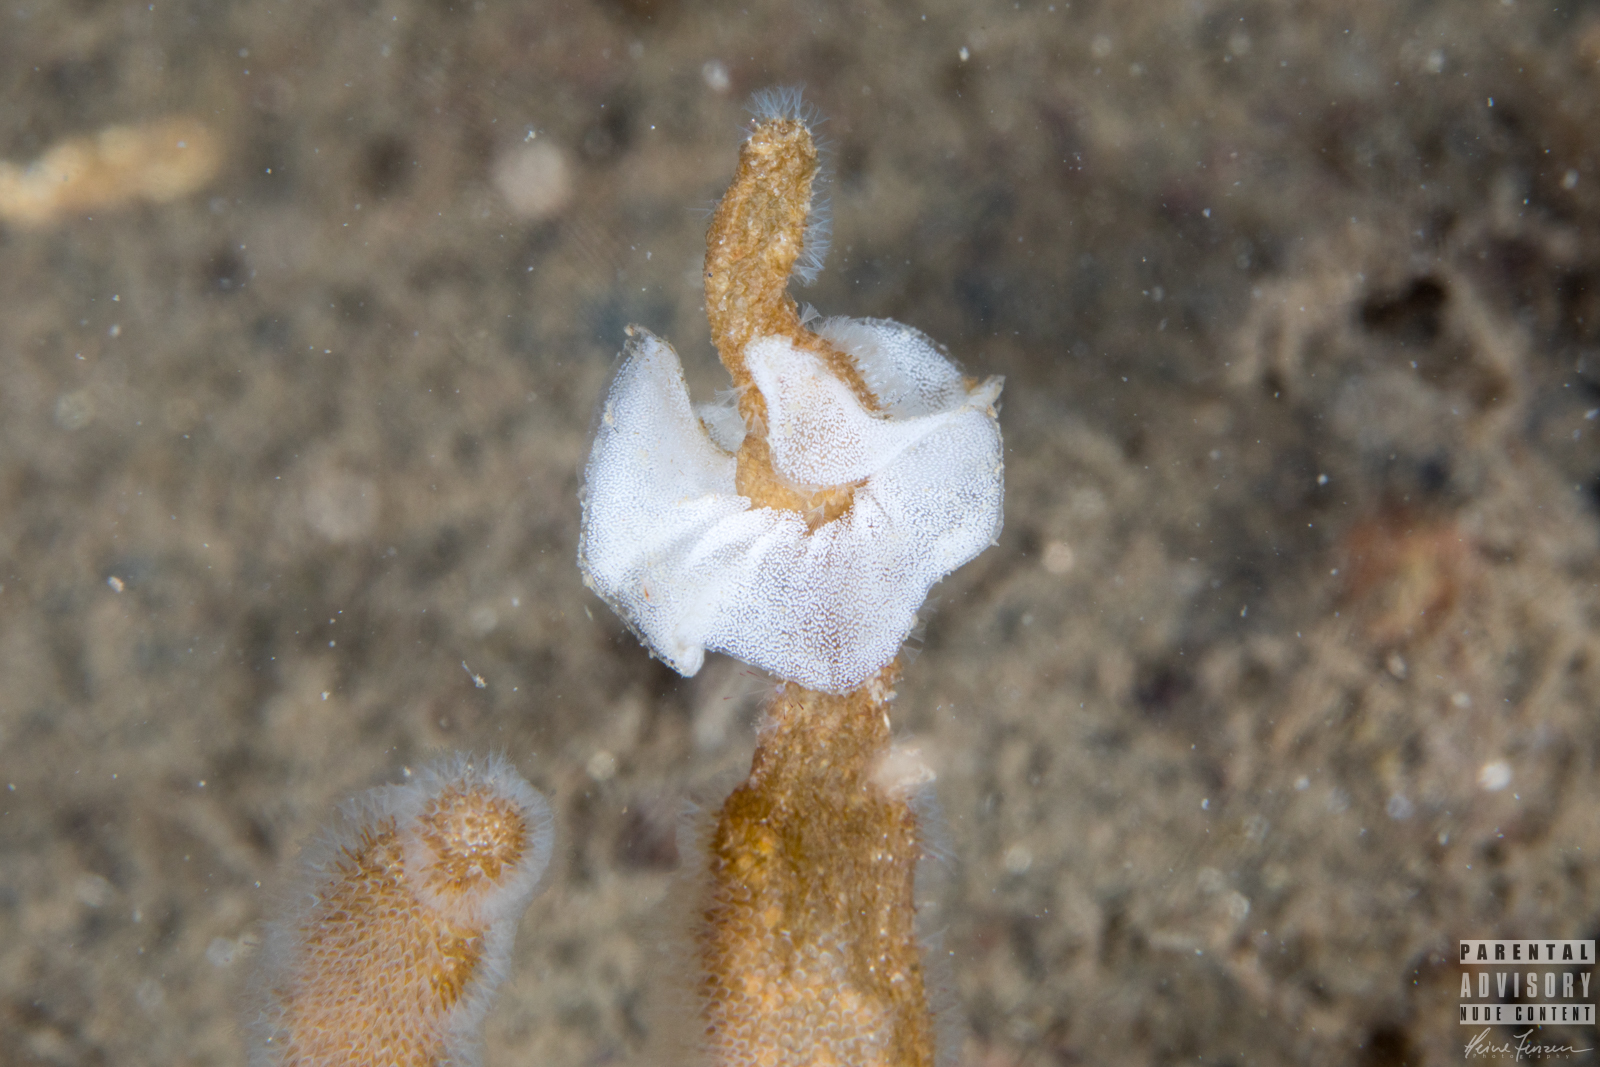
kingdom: Animalia
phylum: Mollusca
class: Gastropoda
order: Nudibranchia
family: Onchidorididae
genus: Acanthodoris
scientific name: Acanthodoris pilosa
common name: Hairy spiny doris
